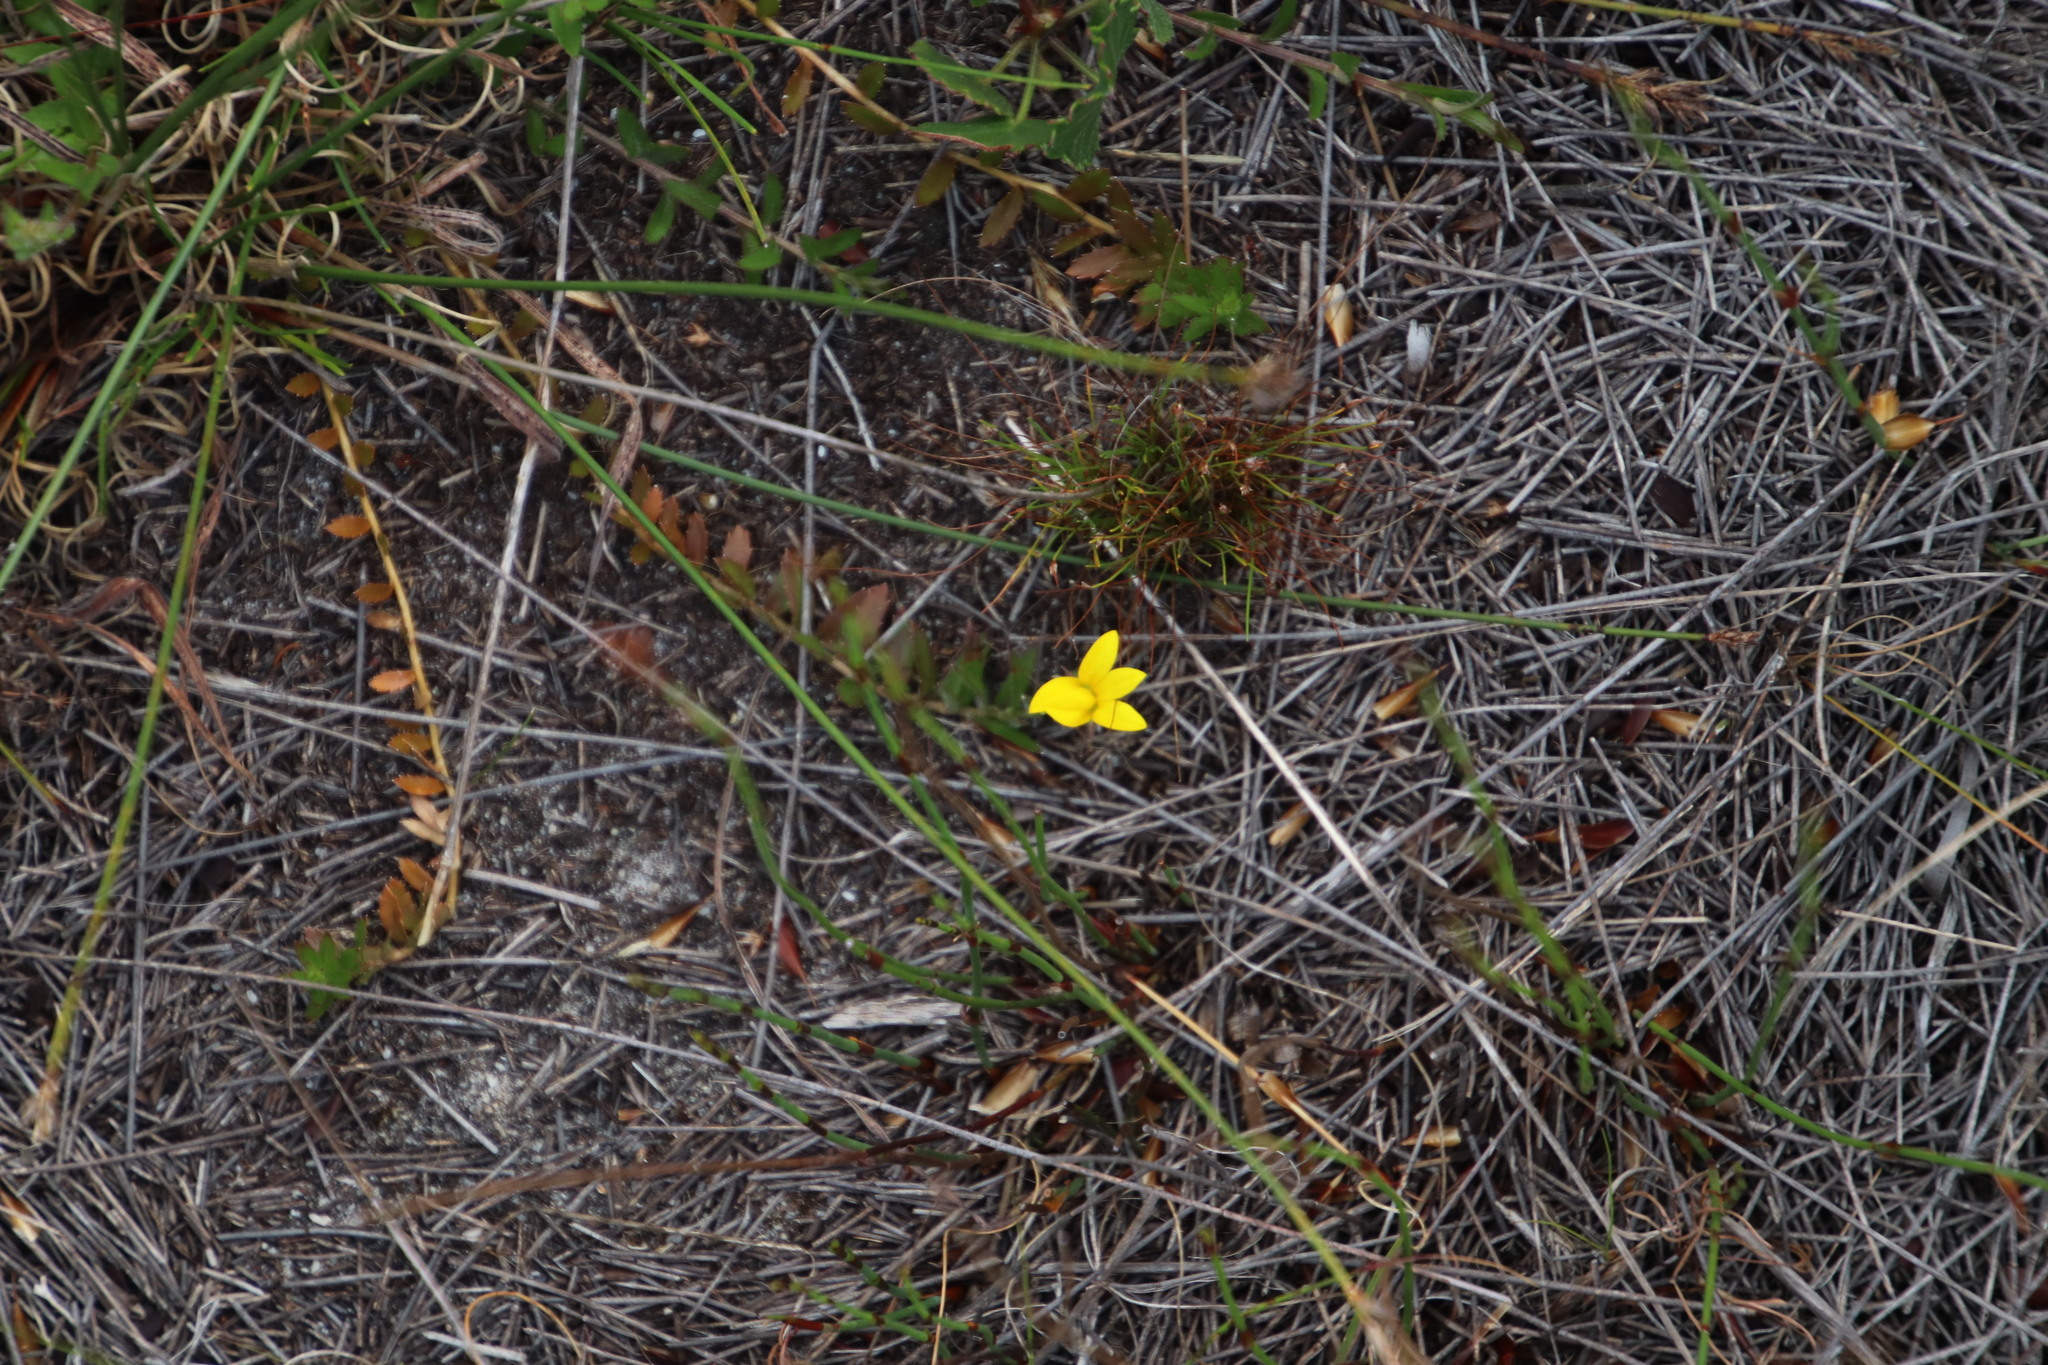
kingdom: Plantae
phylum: Tracheophyta
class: Magnoliopsida
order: Asterales
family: Campanulaceae
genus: Monopsis
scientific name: Monopsis lutea
